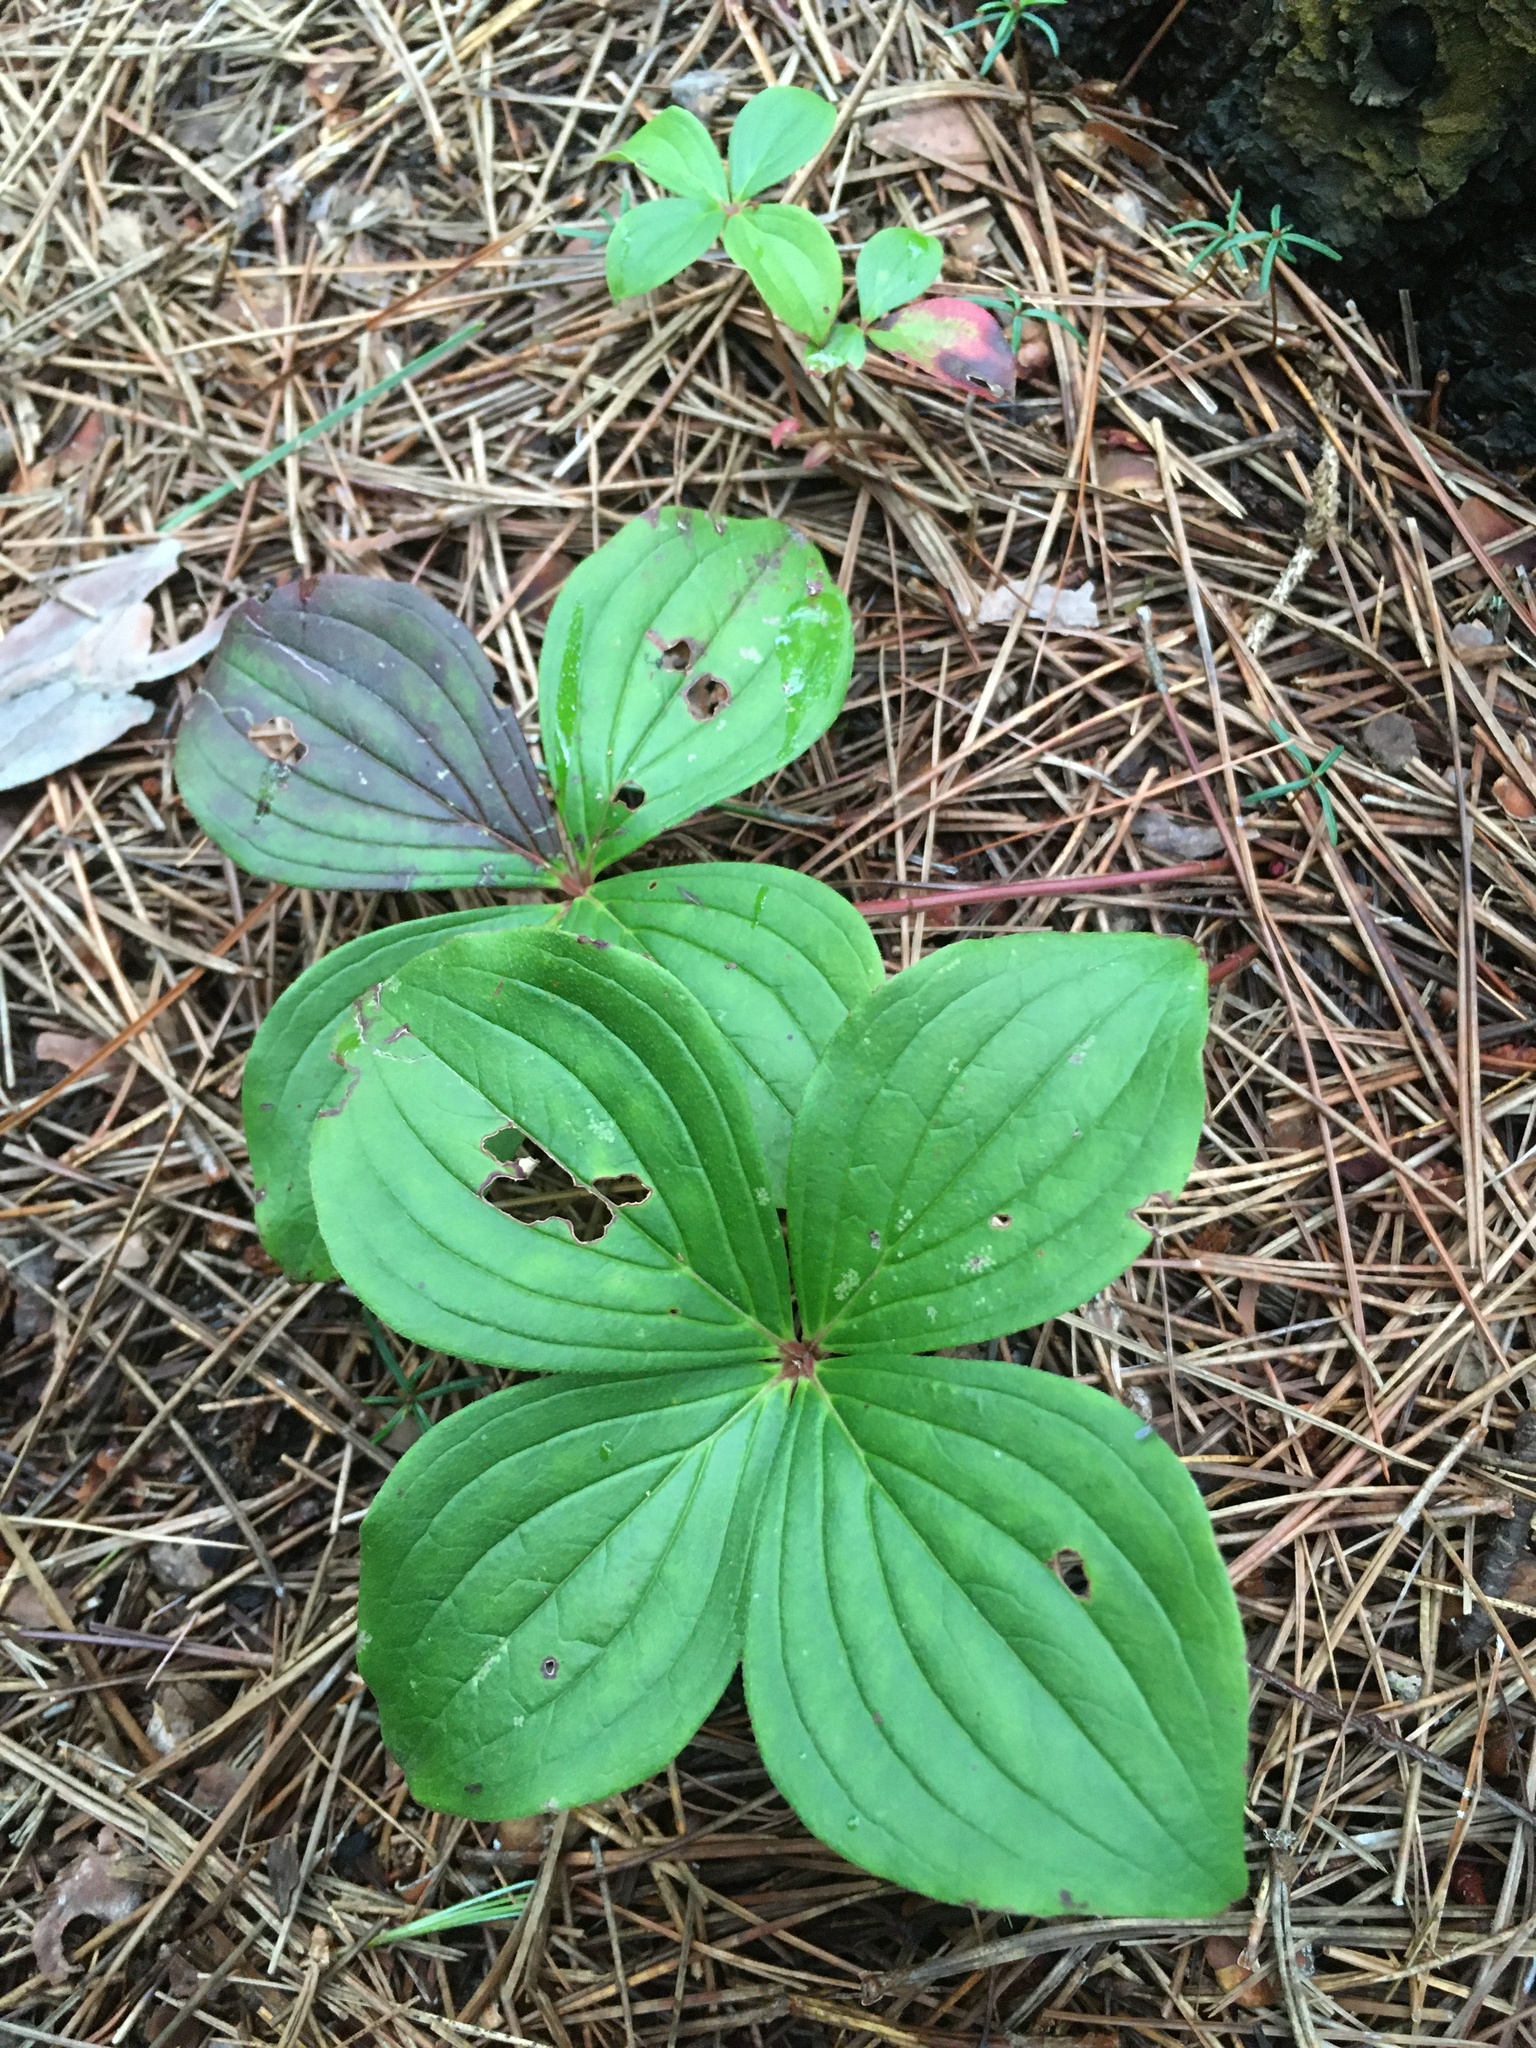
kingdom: Plantae
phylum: Tracheophyta
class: Magnoliopsida
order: Cornales
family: Cornaceae
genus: Cornus
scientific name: Cornus canadensis
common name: Creeping dogwood
